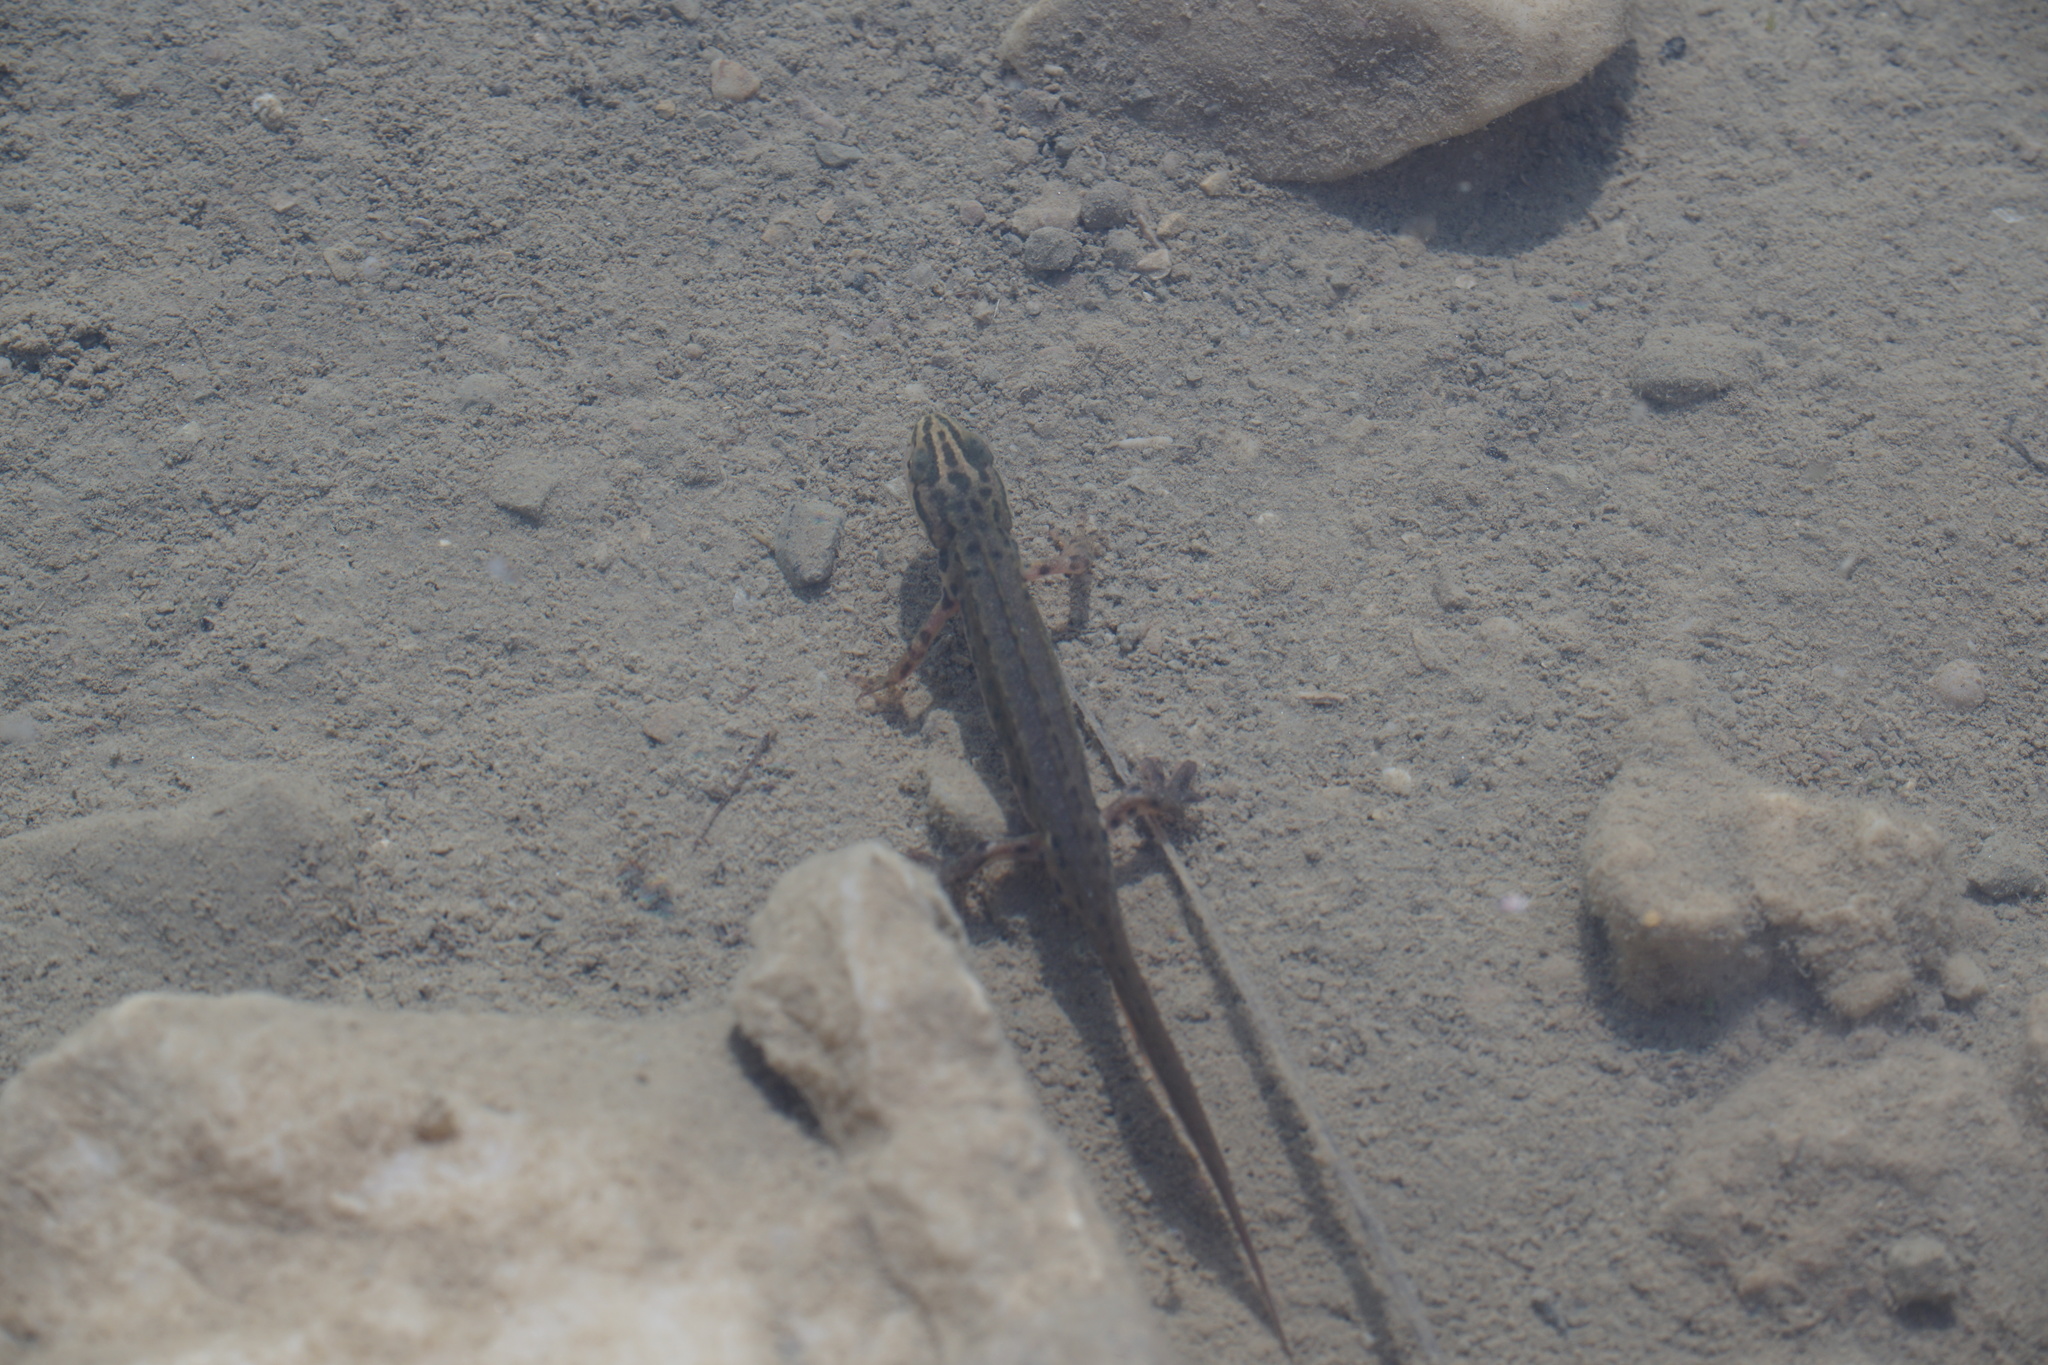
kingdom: Animalia
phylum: Chordata
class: Amphibia
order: Caudata
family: Salamandridae
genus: Lissotriton
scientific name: Lissotriton vulgaris
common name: Smooth newt
